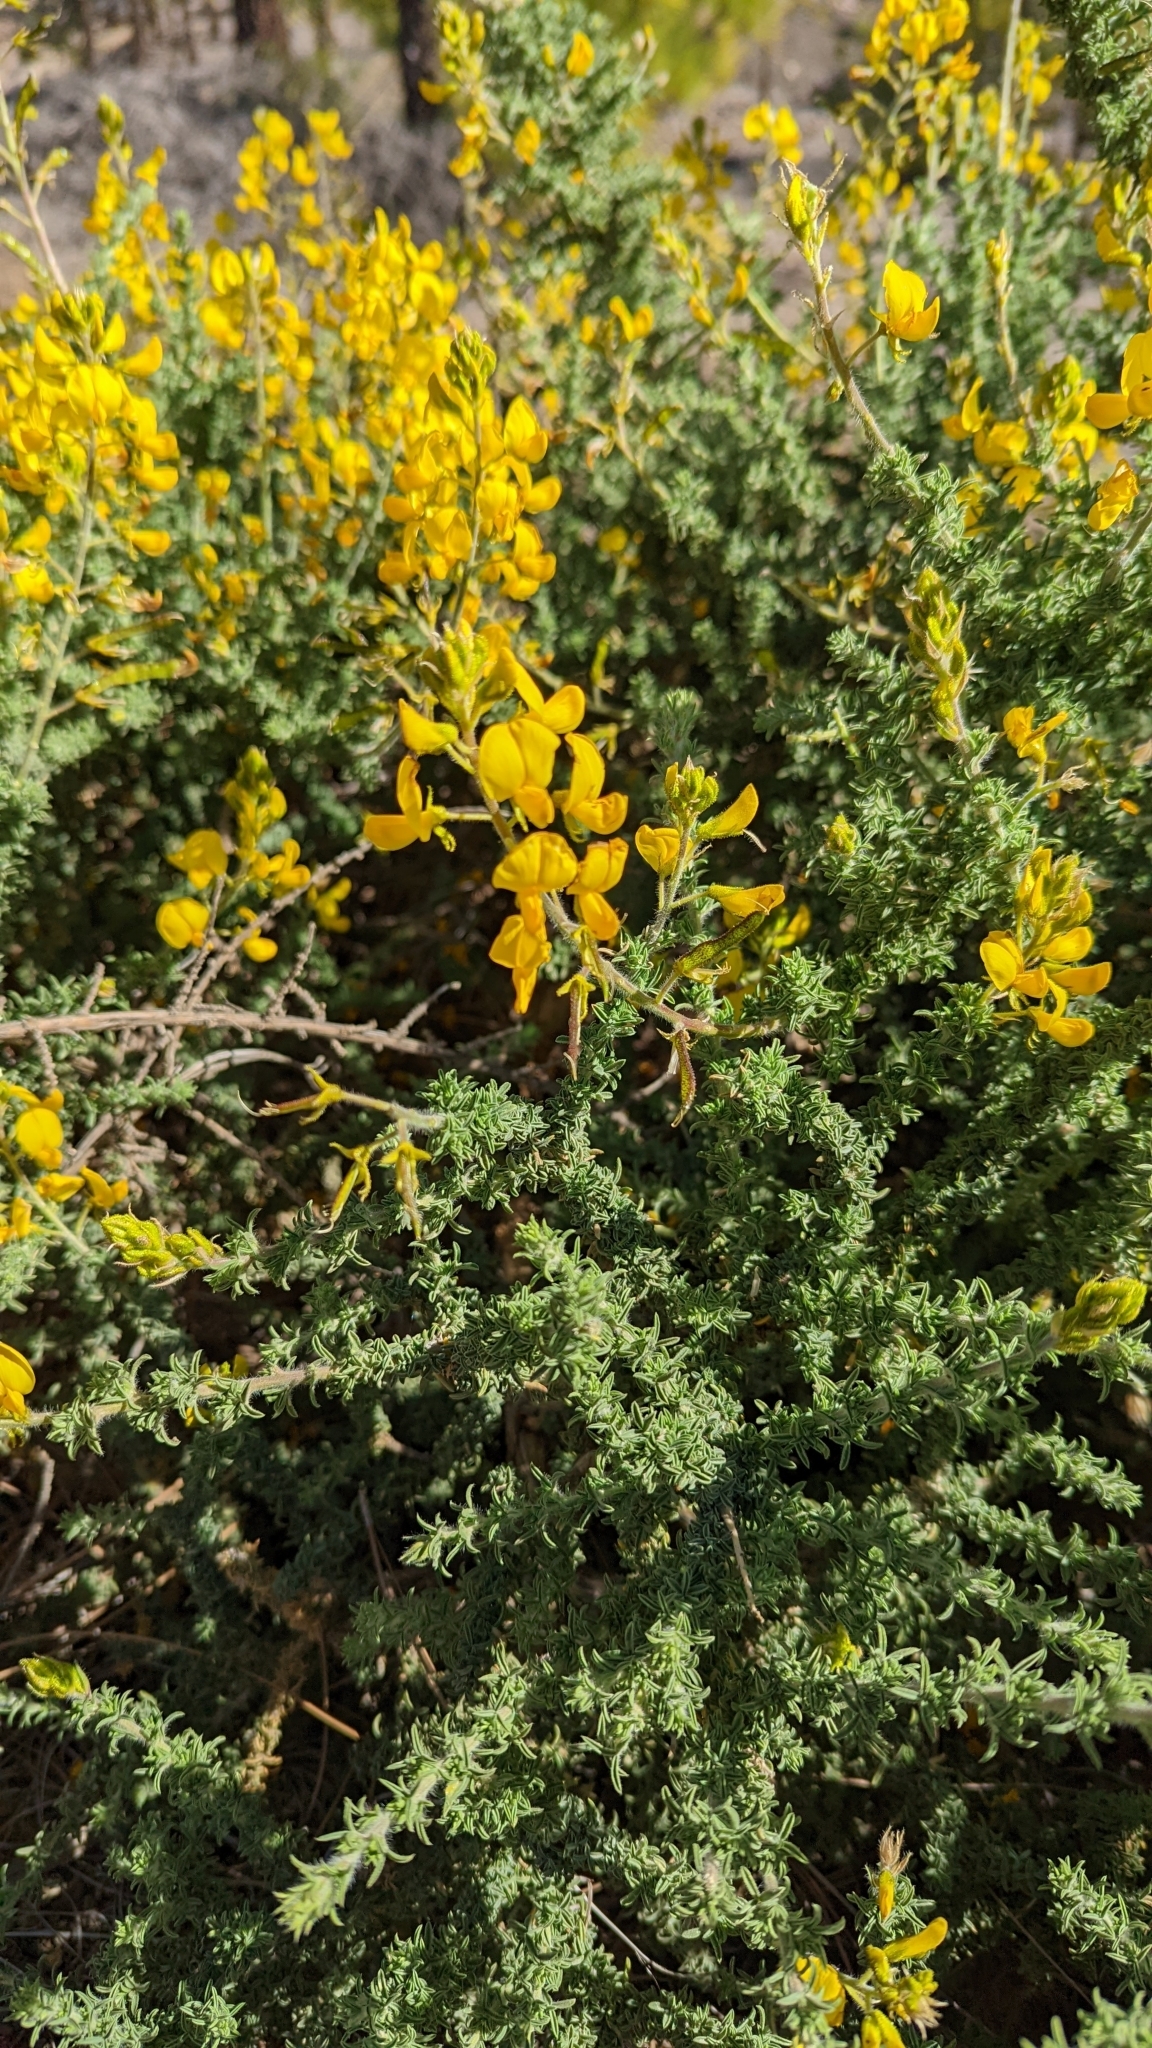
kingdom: Plantae
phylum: Tracheophyta
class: Magnoliopsida
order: Fabales
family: Fabaceae
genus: Adenocarpus
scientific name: Adenocarpus viscosus
